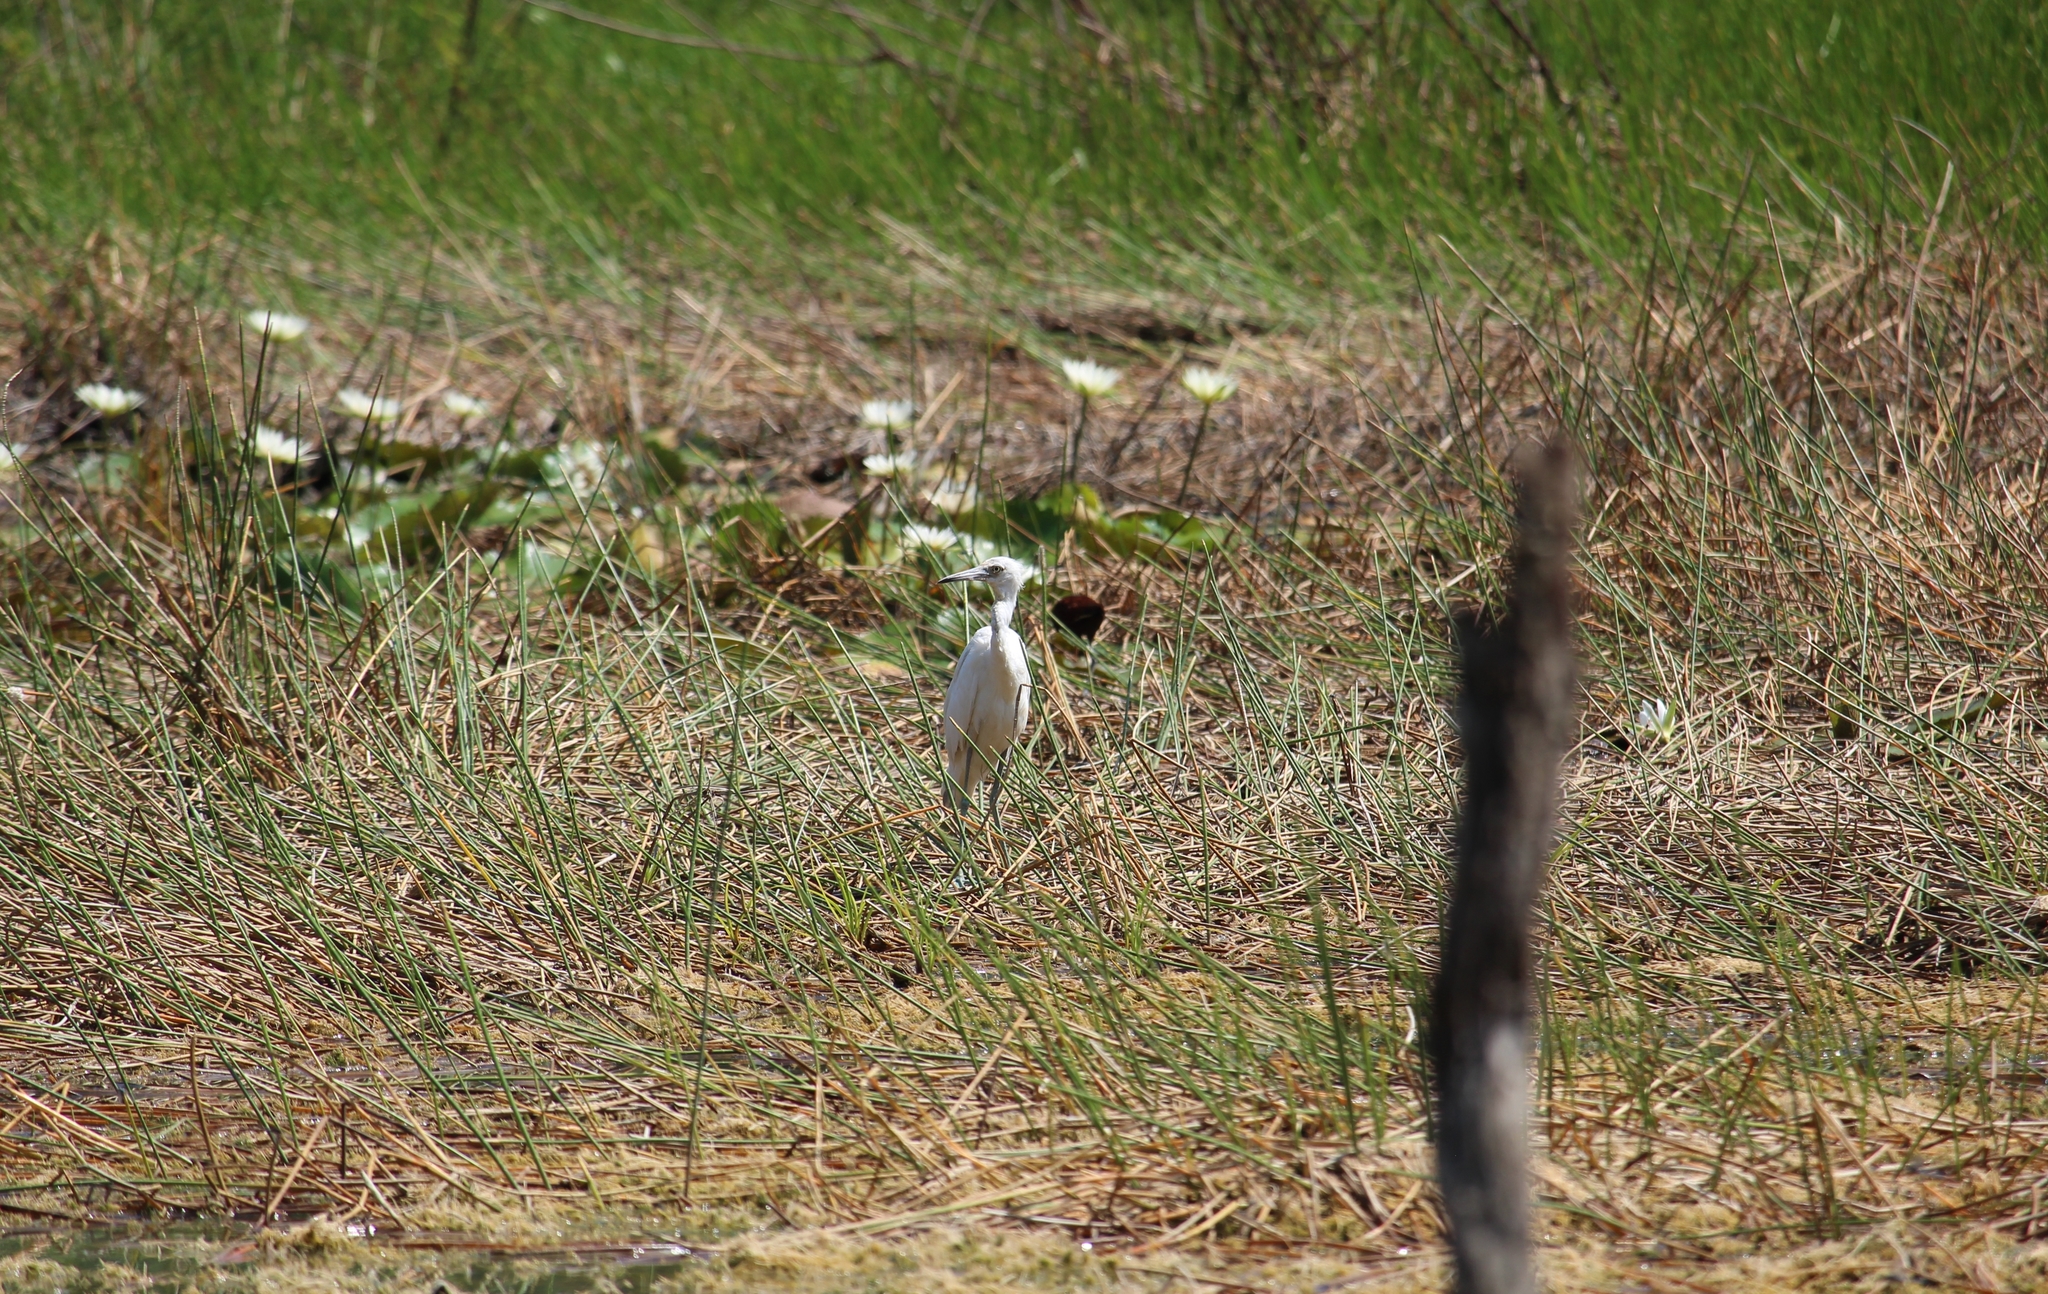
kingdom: Animalia
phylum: Chordata
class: Aves
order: Pelecaniformes
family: Ardeidae
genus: Egretta
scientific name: Egretta caerulea
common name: Little blue heron
